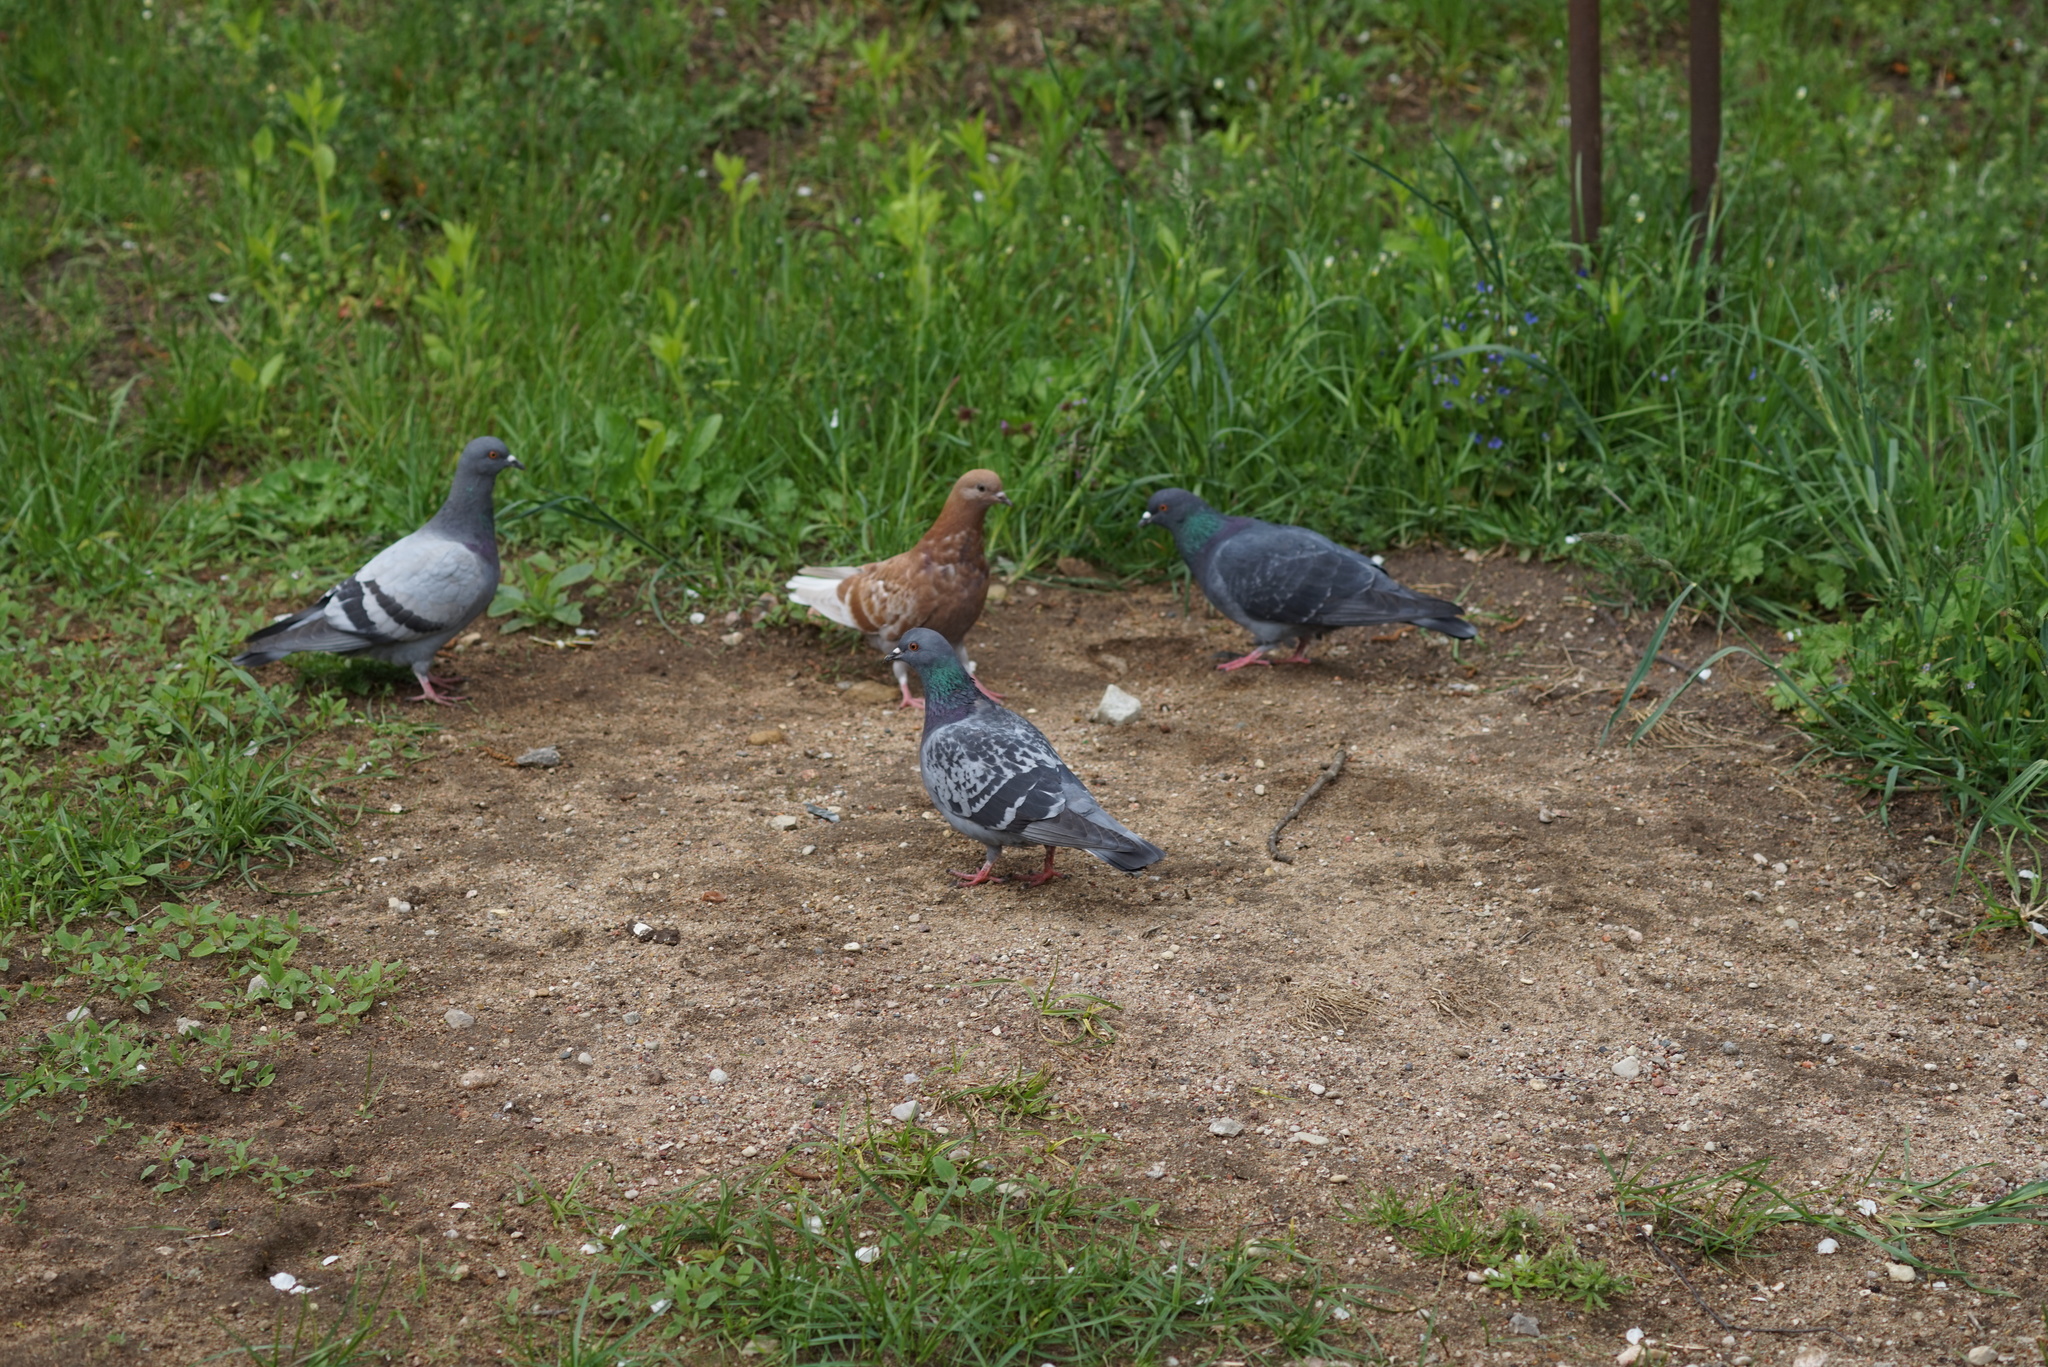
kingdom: Animalia
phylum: Chordata
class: Aves
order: Columbiformes
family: Columbidae
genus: Columba
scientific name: Columba livia
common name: Rock pigeon
